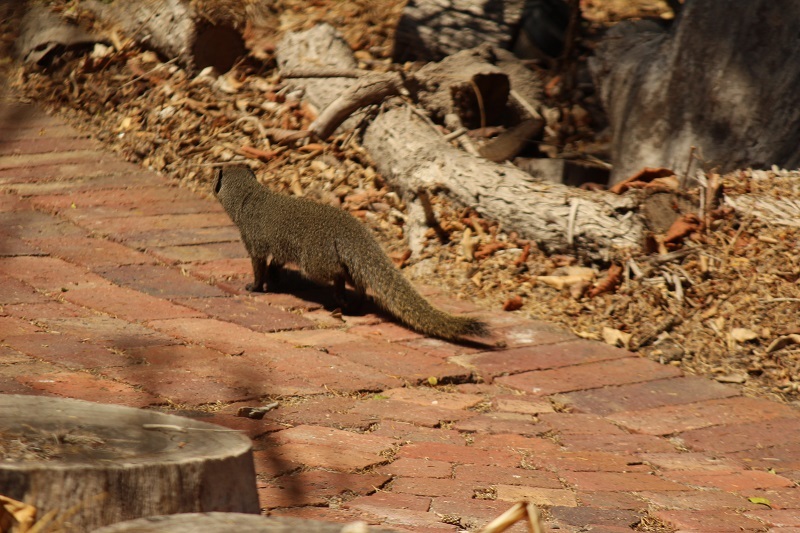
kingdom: Animalia
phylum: Chordata
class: Mammalia
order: Carnivora
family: Herpestidae
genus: Galerella
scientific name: Galerella pulverulenta
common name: Cape gray mongoose
